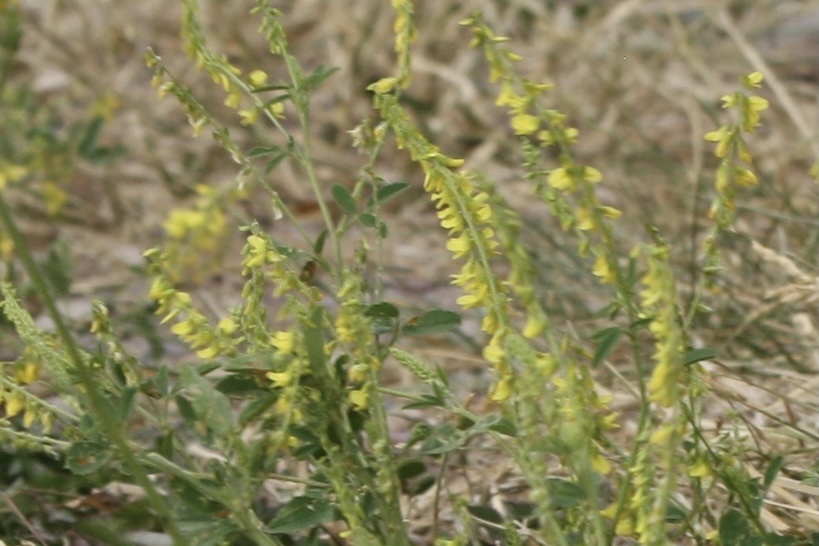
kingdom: Plantae
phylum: Tracheophyta
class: Magnoliopsida
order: Fabales
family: Fabaceae
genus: Melilotus
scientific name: Melilotus officinalis
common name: Sweetclover
